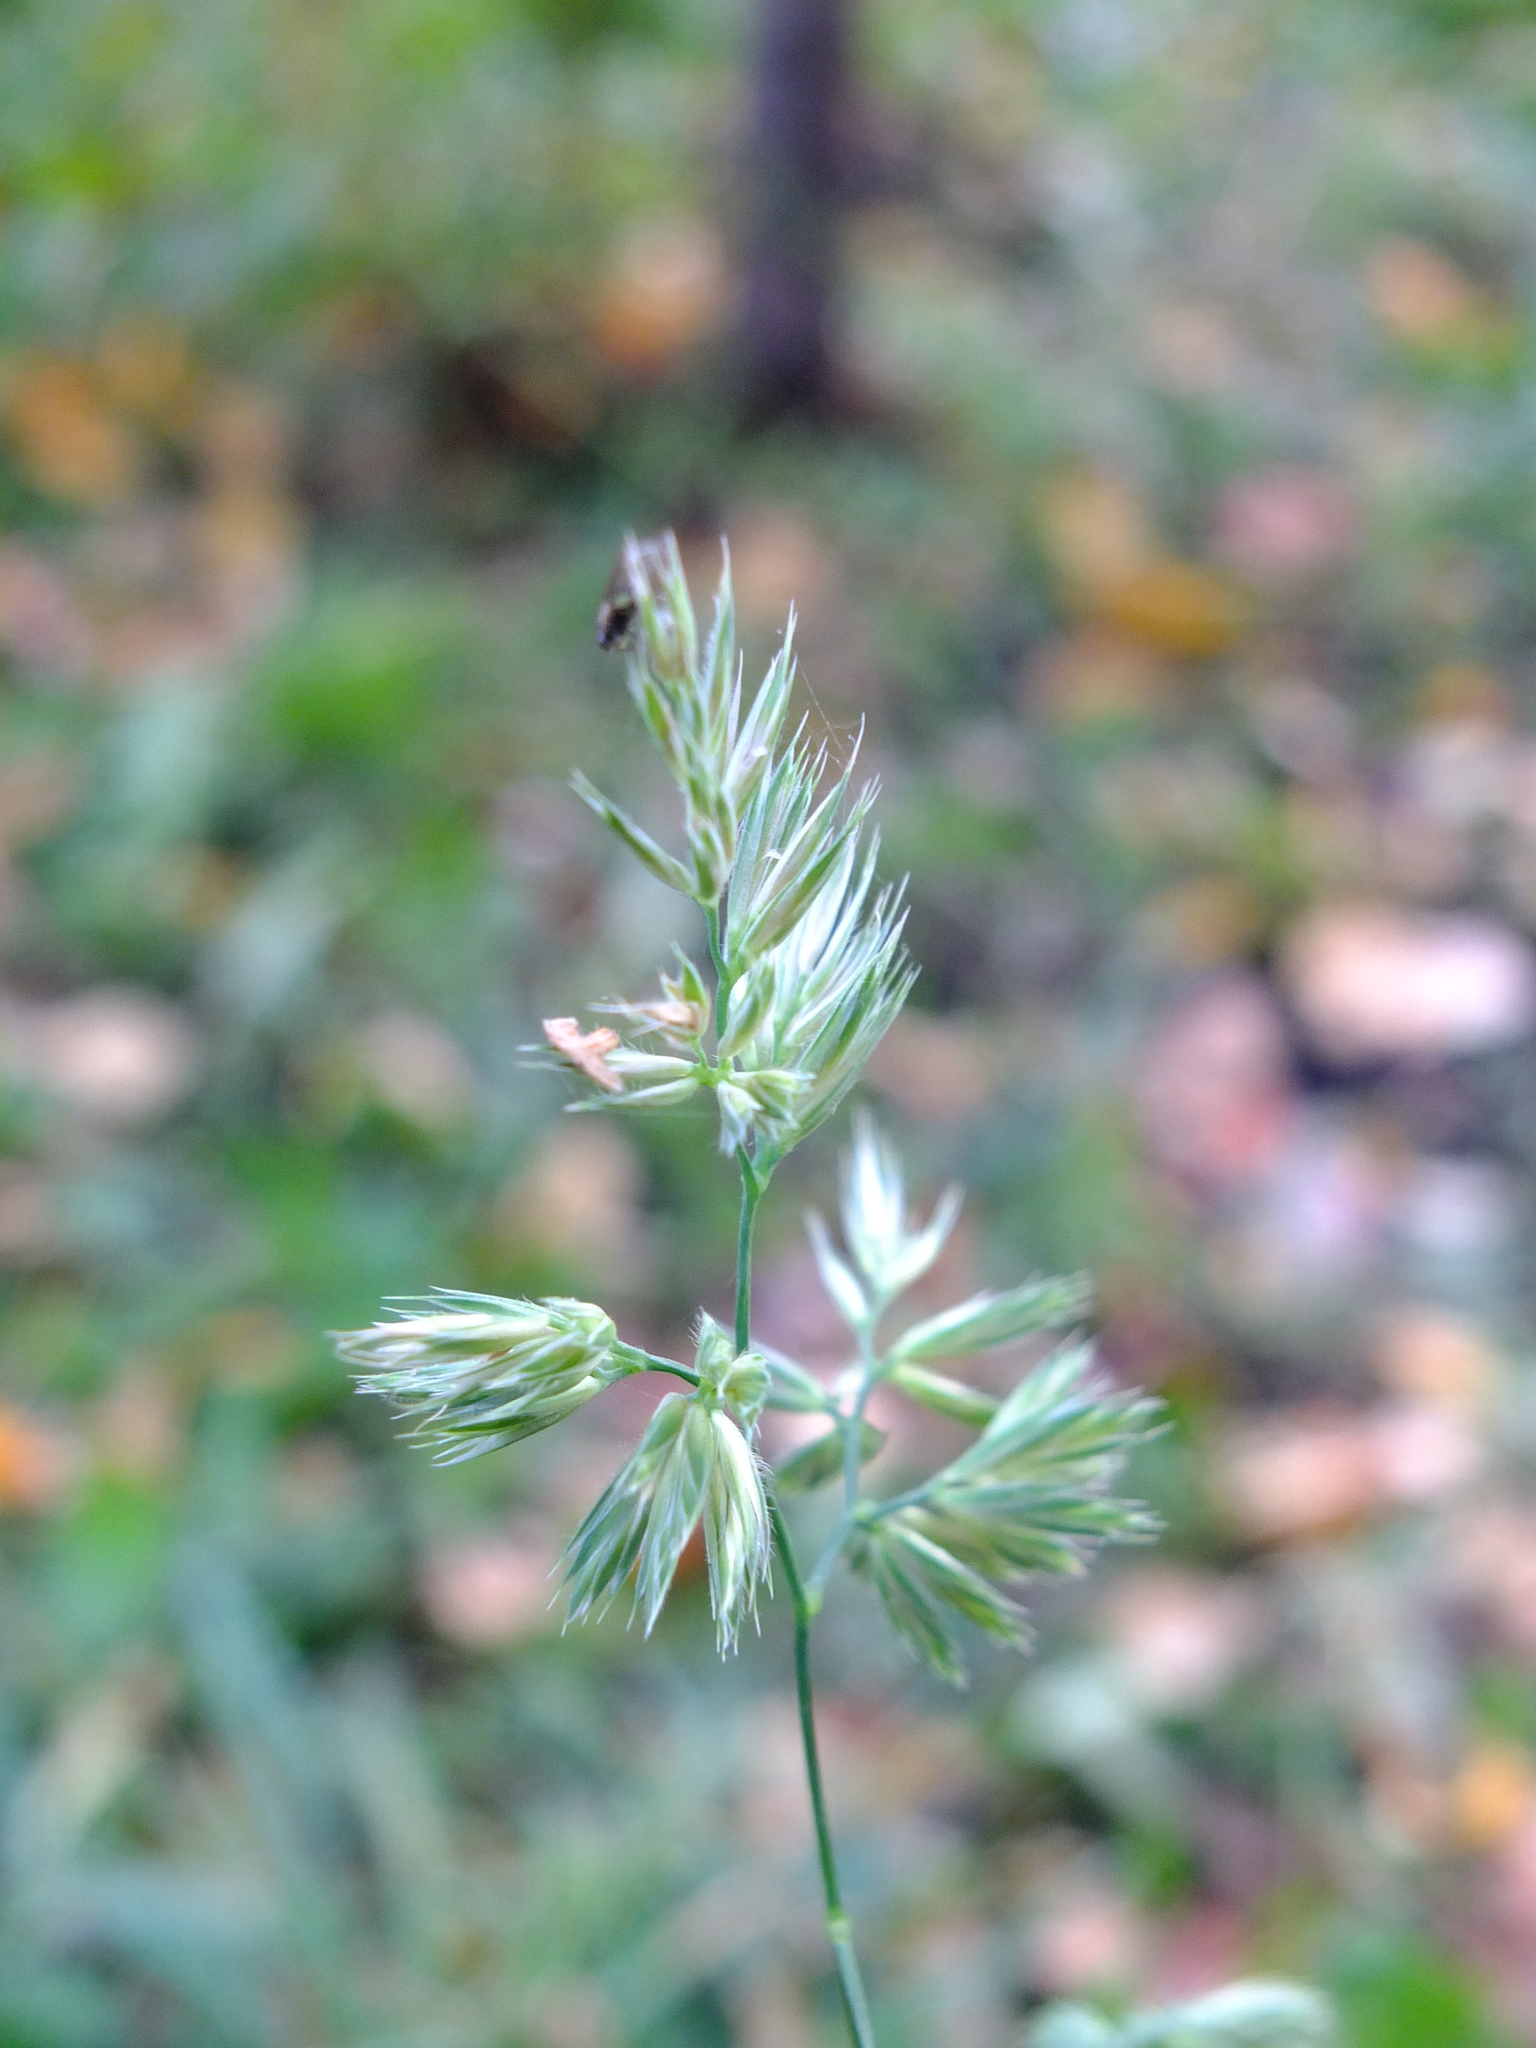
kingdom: Plantae
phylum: Tracheophyta
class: Liliopsida
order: Poales
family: Poaceae
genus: Dactylis
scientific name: Dactylis glomerata
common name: Orchardgrass
